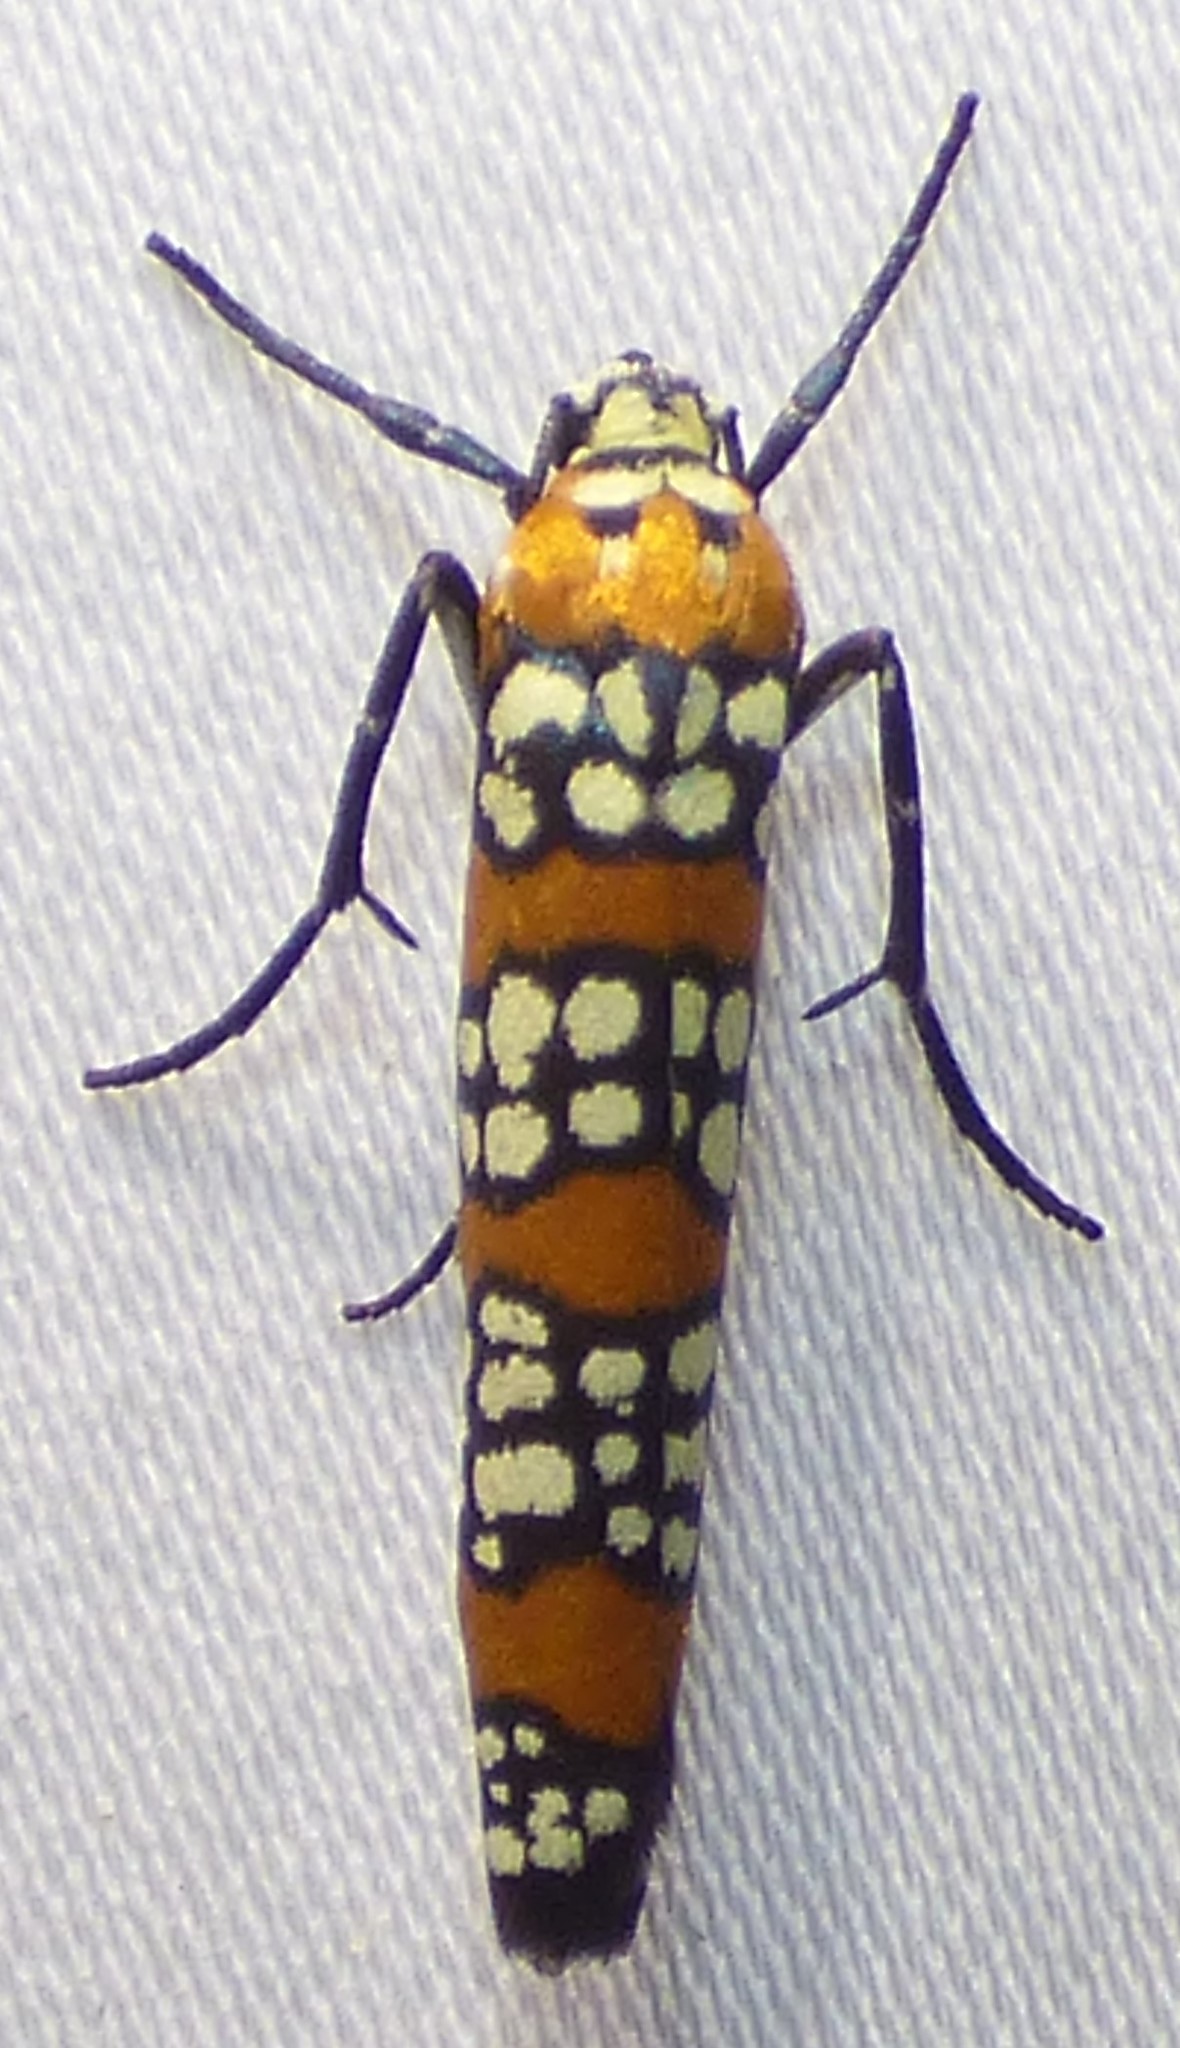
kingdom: Animalia
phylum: Arthropoda
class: Insecta
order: Lepidoptera
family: Attevidae
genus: Atteva
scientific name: Atteva punctella
